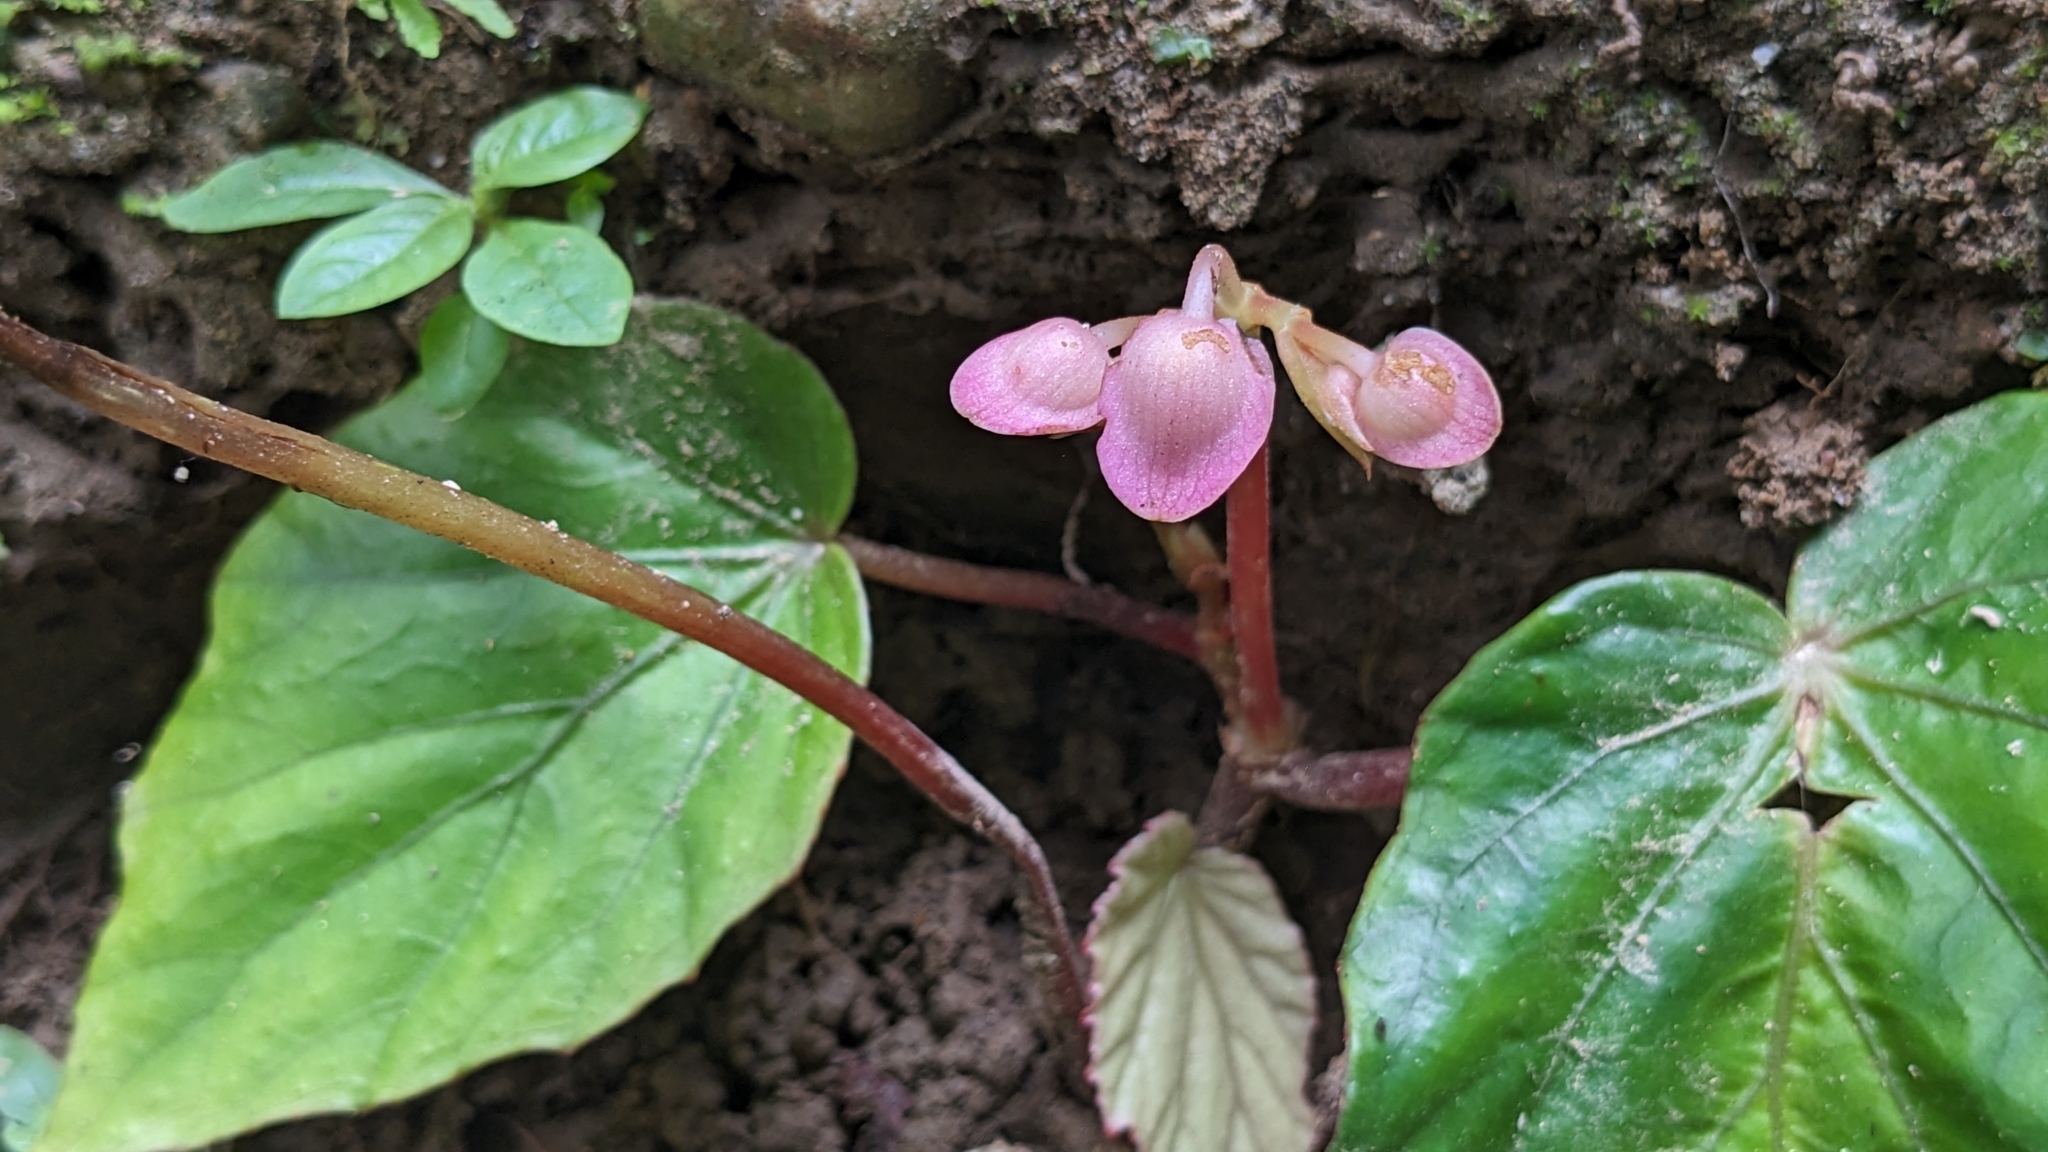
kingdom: Plantae
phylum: Tracheophyta
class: Magnoliopsida
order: Cucurbitales
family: Begoniaceae
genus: Begonia
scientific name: Begonia bouffordii
